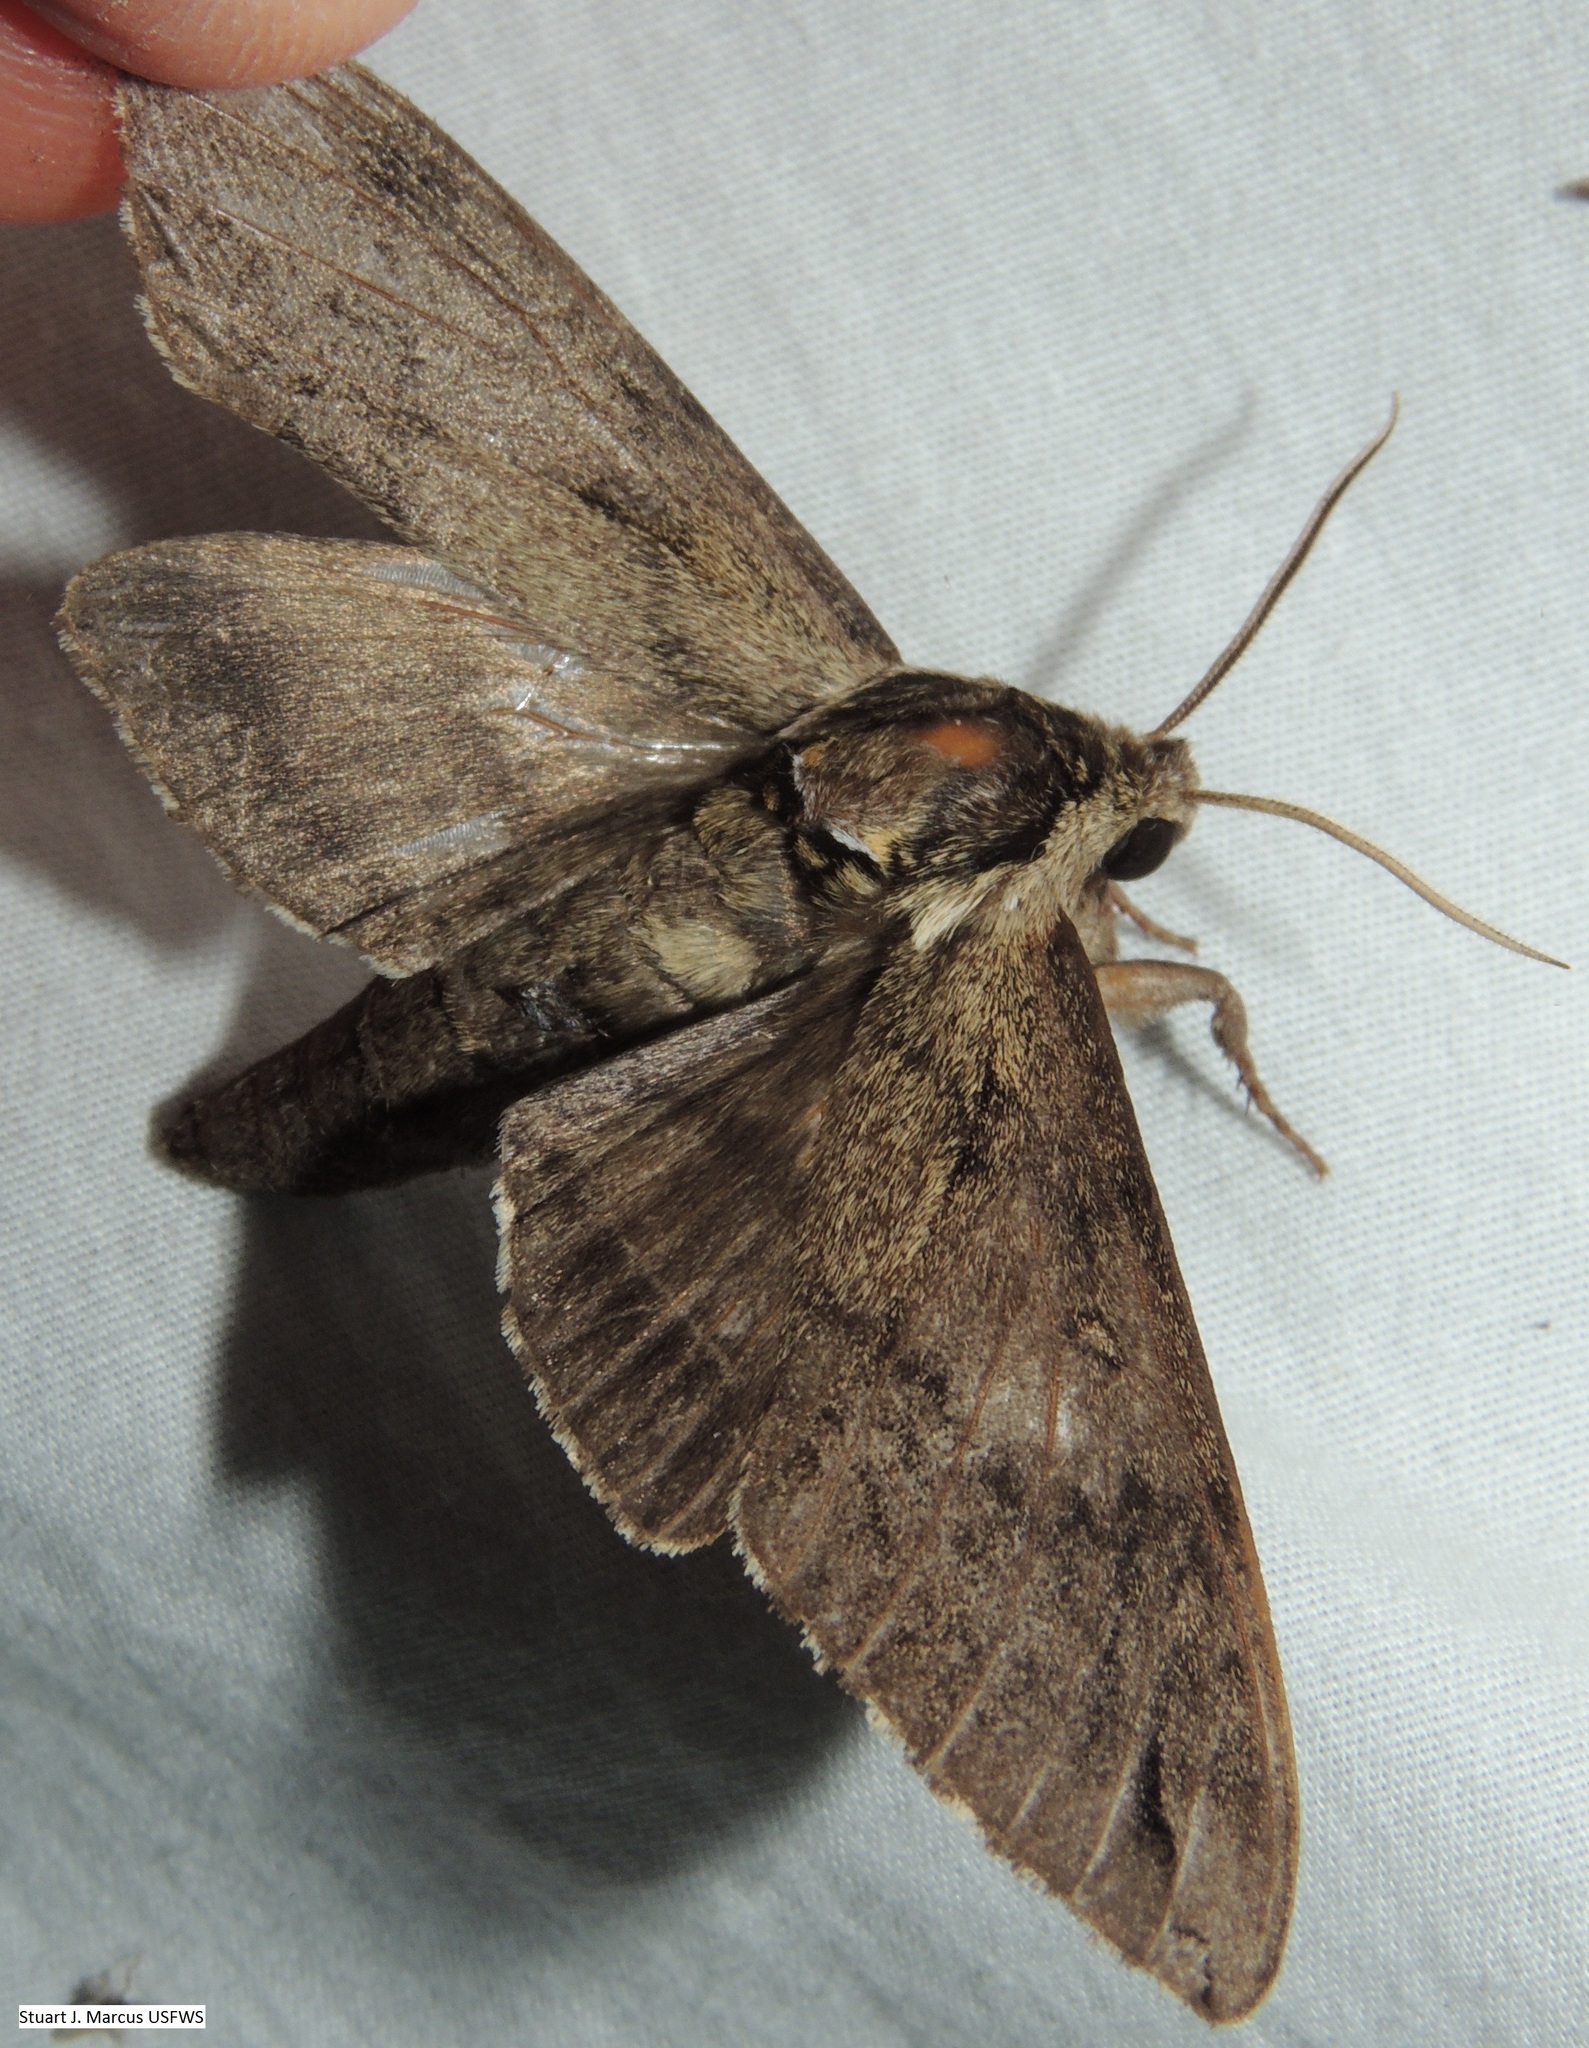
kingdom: Animalia
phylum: Arthropoda
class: Insecta
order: Lepidoptera
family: Sphingidae
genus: Ceratomia
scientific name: Ceratomia catalpae
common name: Catalpa hornworm
